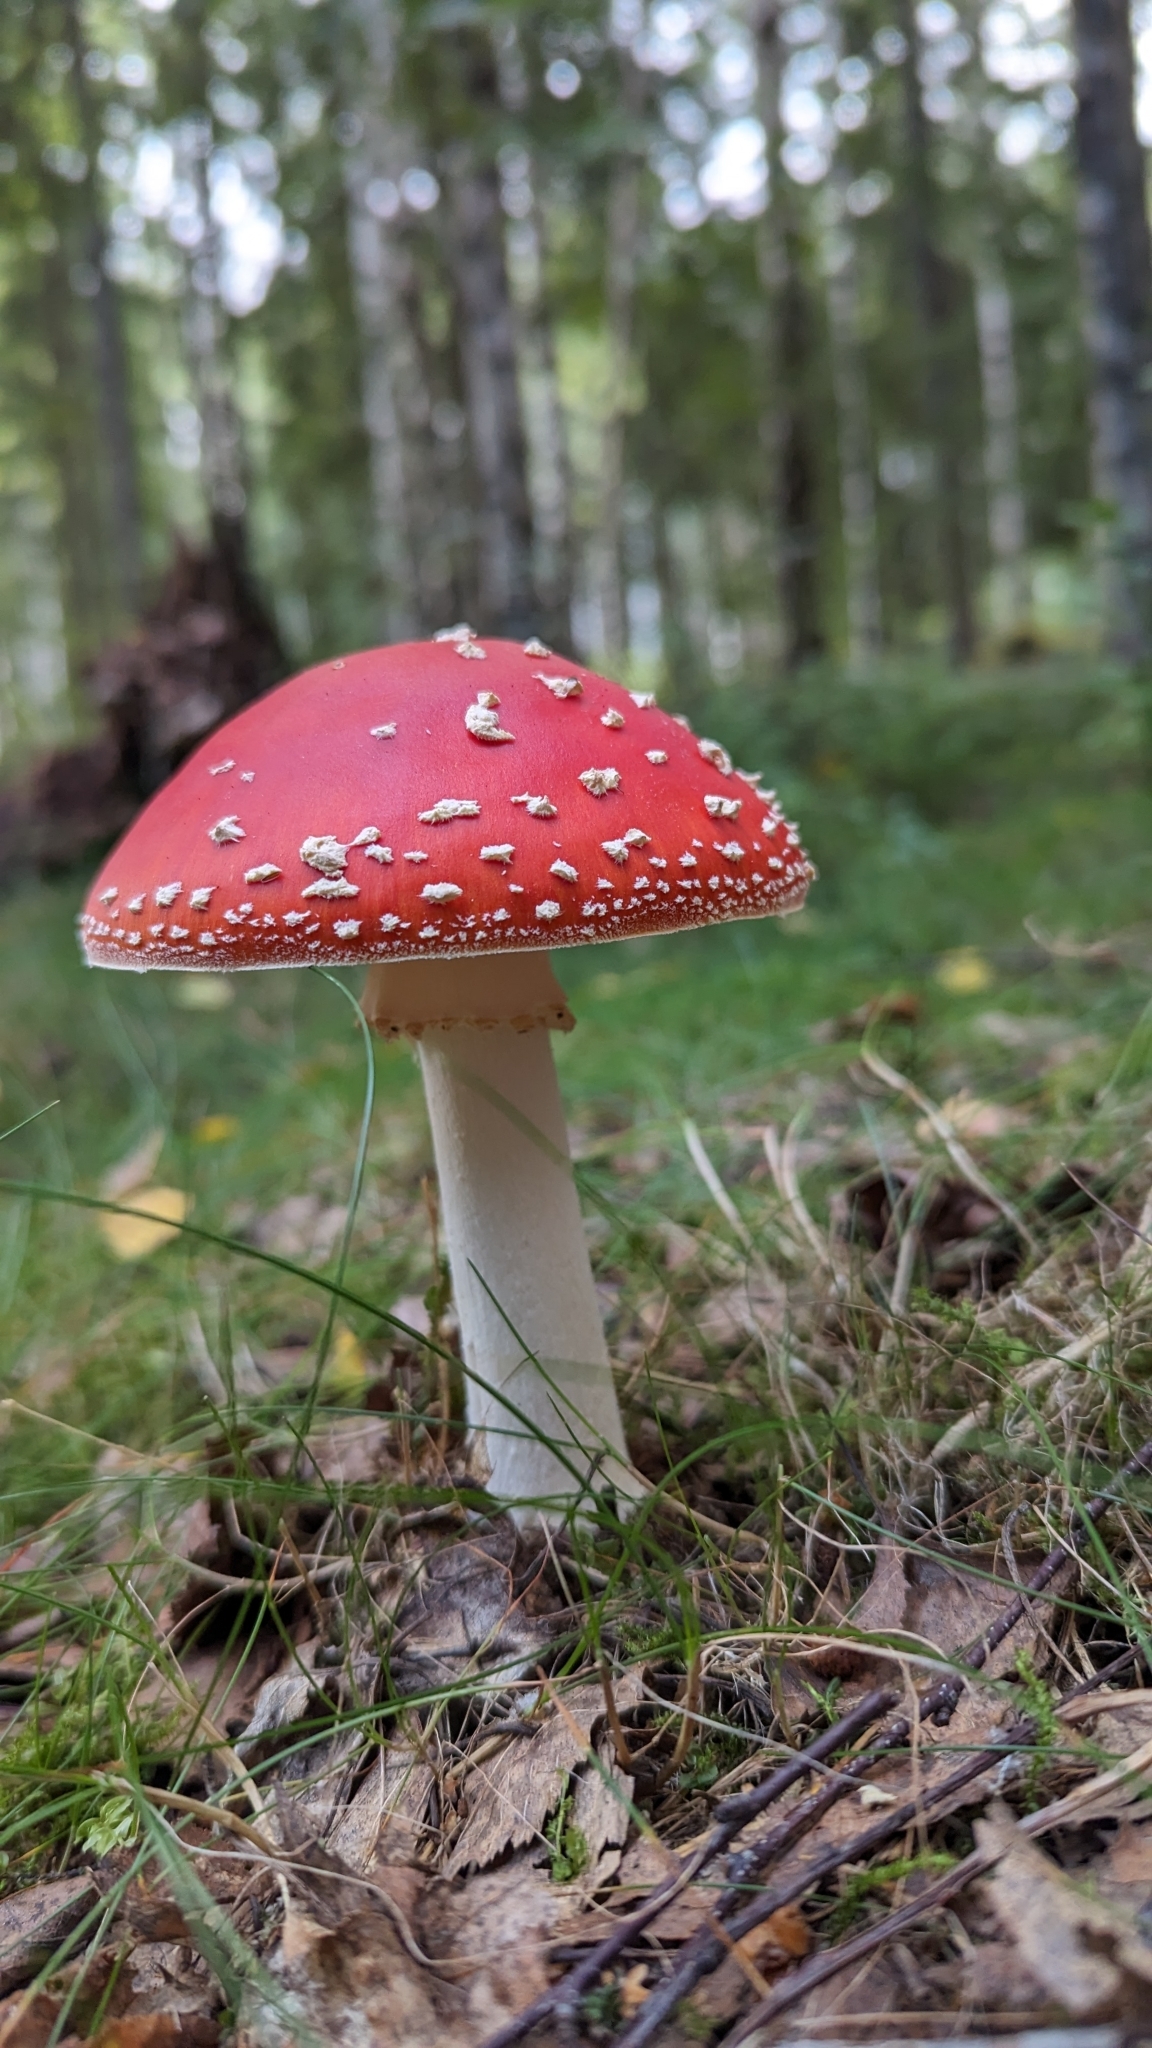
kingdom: Fungi
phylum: Basidiomycota
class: Agaricomycetes
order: Agaricales
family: Amanitaceae
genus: Amanita
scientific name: Amanita muscaria
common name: Fly agaric
